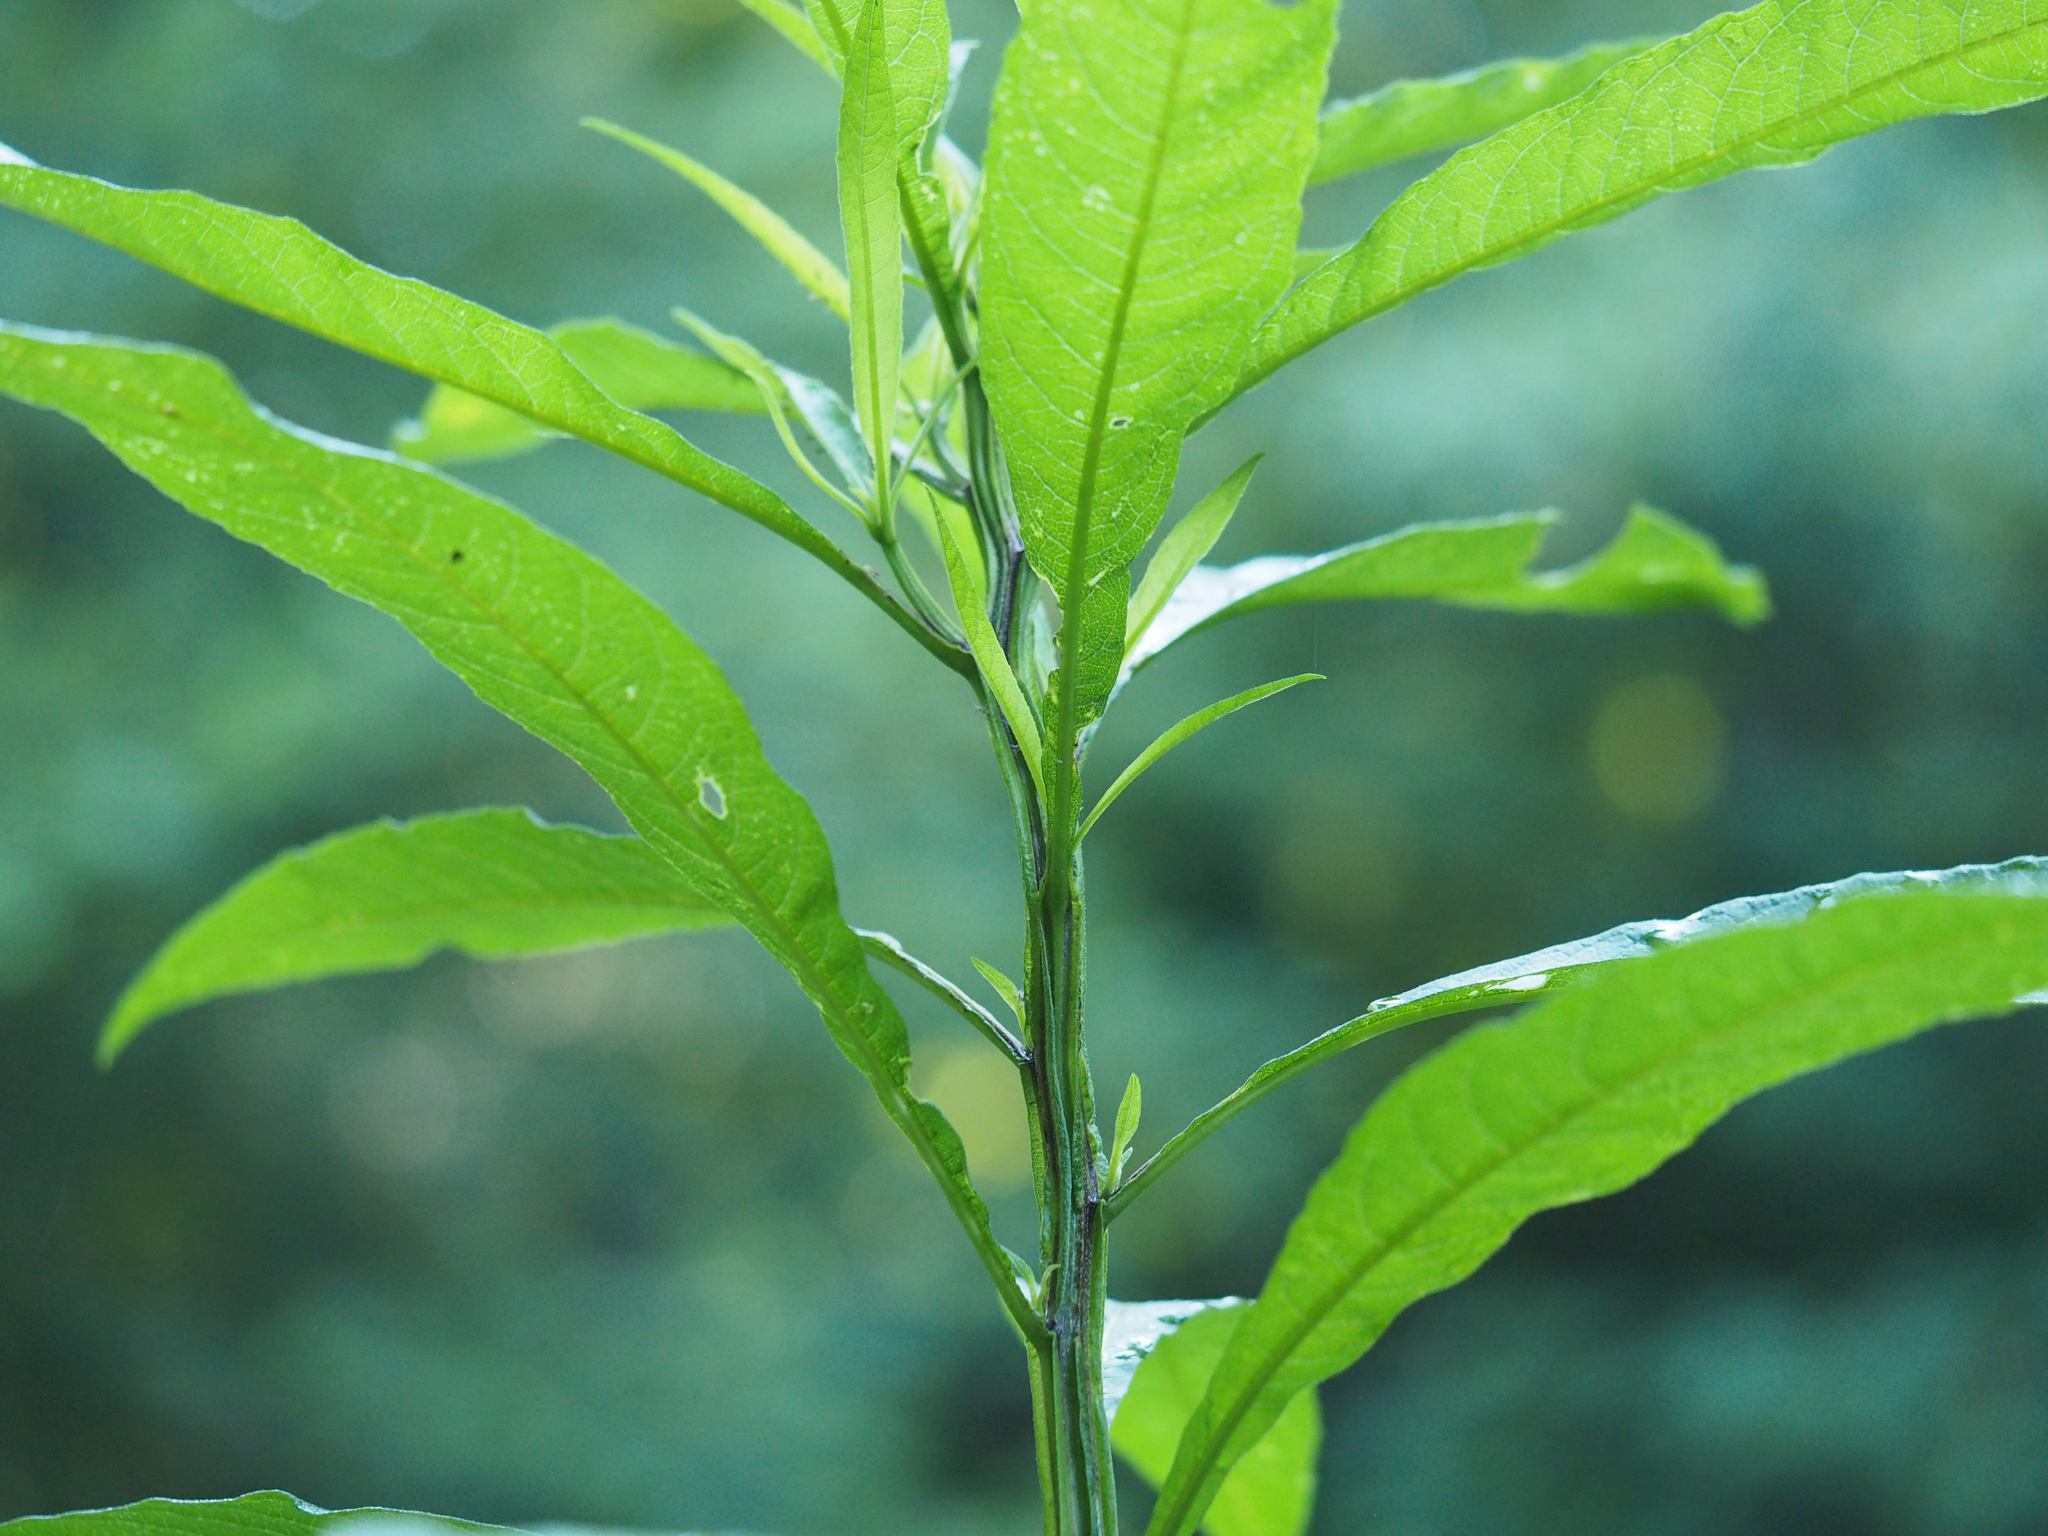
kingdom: Plantae
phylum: Tracheophyta
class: Magnoliopsida
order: Asterales
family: Asteraceae
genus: Verbesina
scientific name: Verbesina alternifolia
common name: Wingstem
